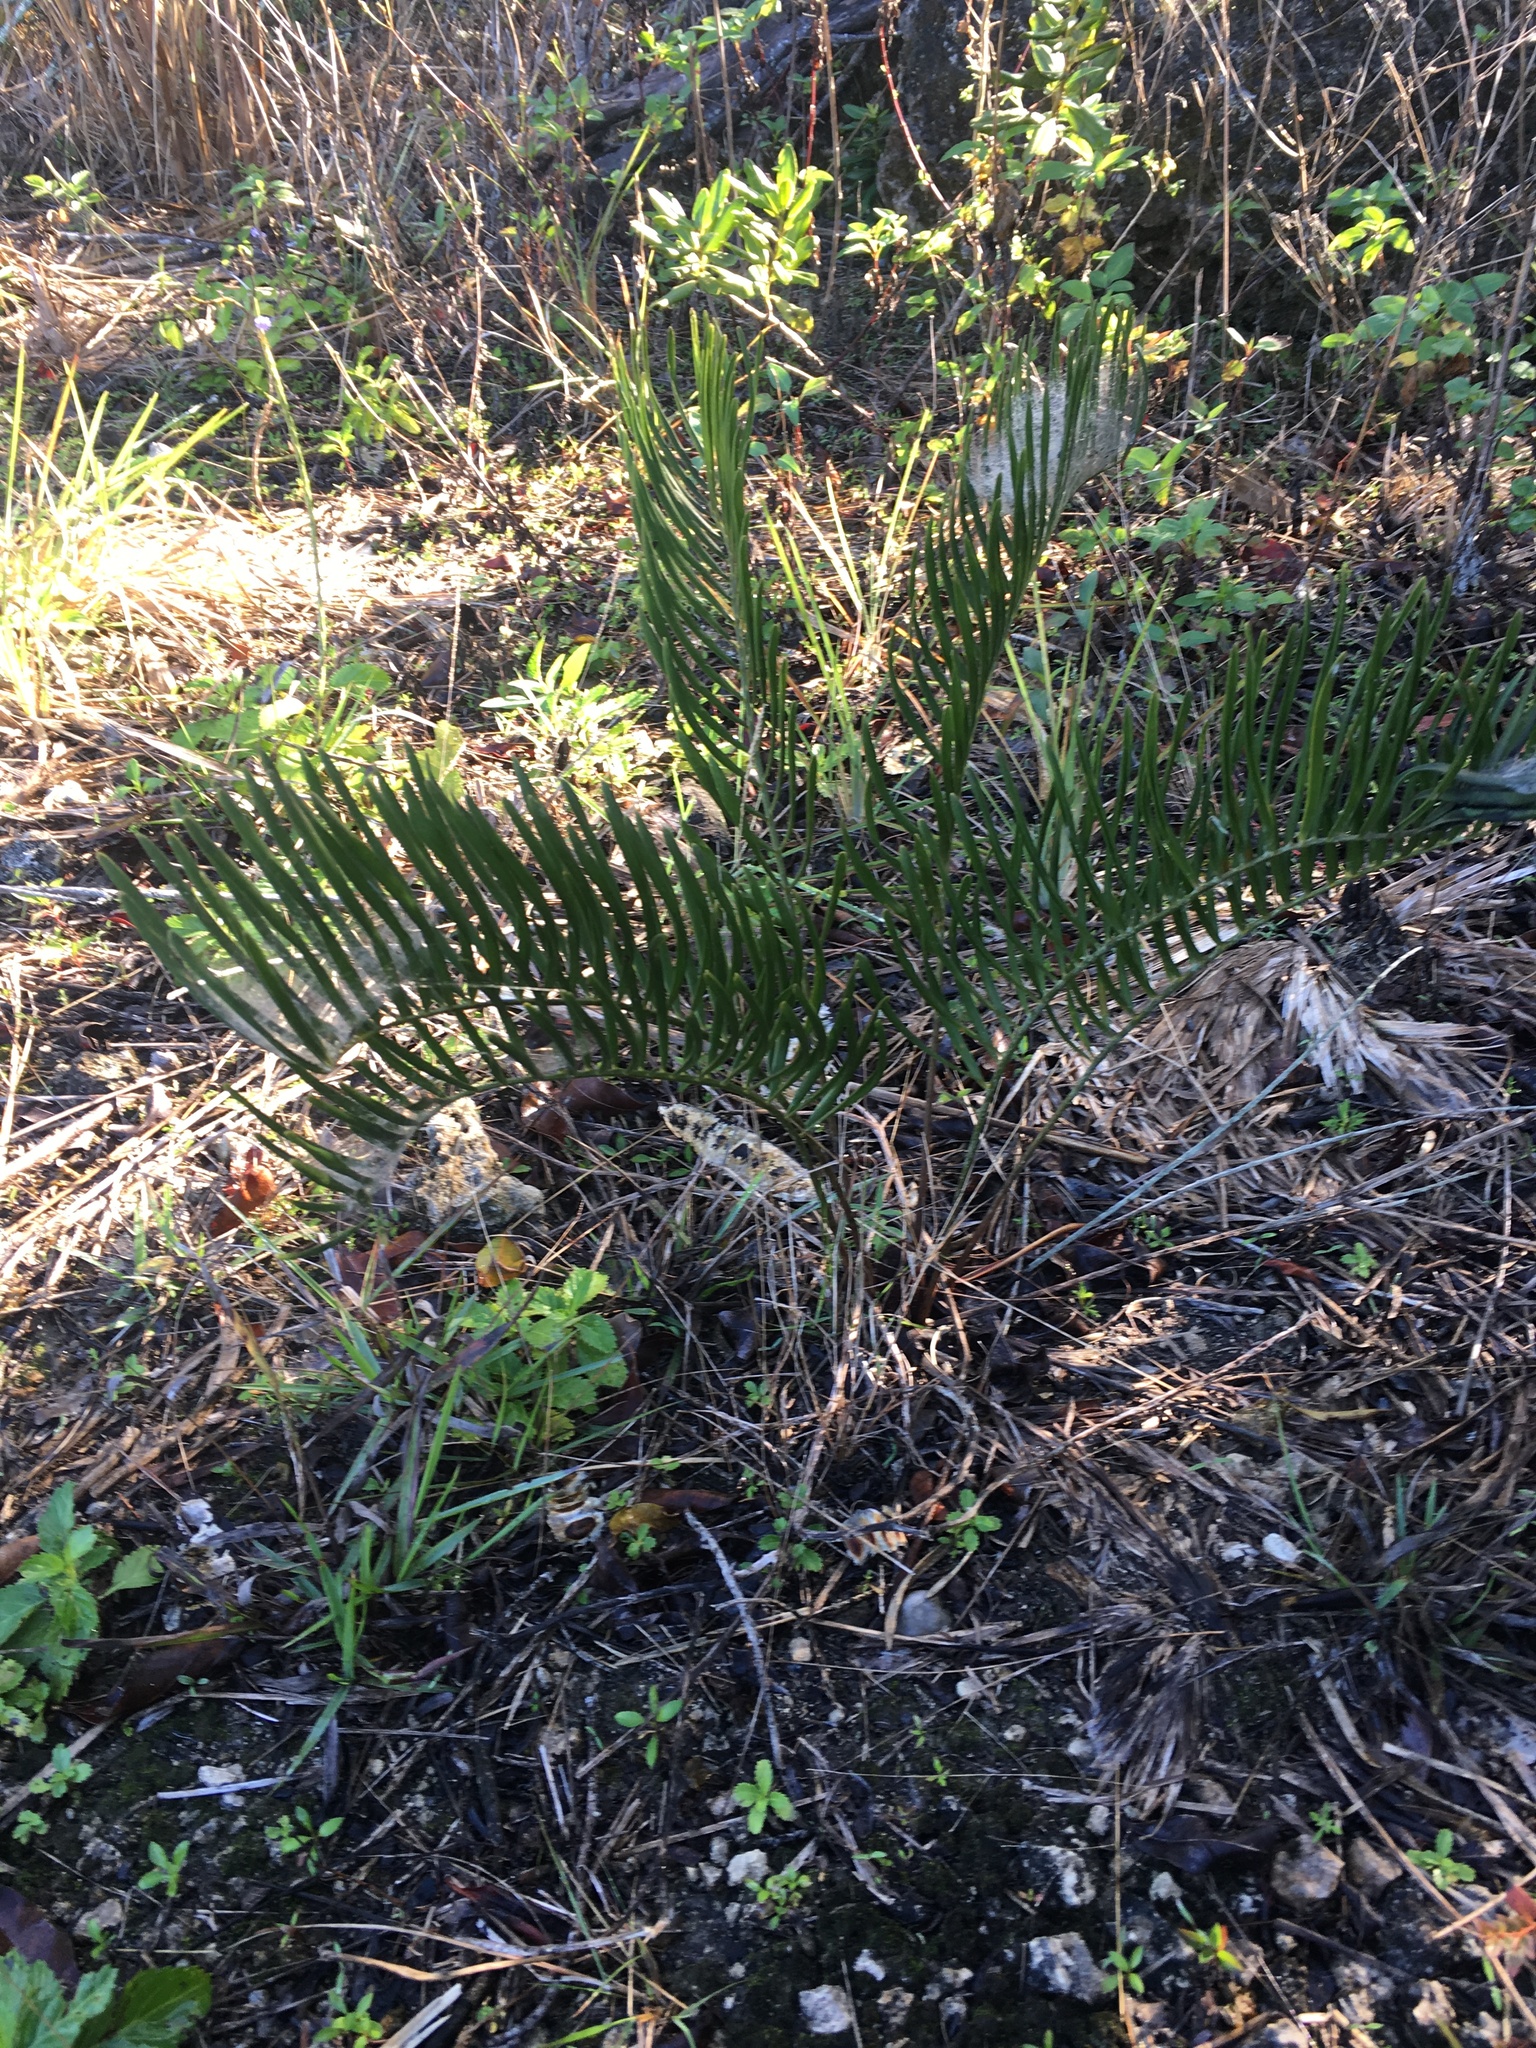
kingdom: Plantae
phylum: Tracheophyta
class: Cycadopsida
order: Cycadales
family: Zamiaceae
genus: Zamia
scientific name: Zamia integrifolia
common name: Florida arrowroot
